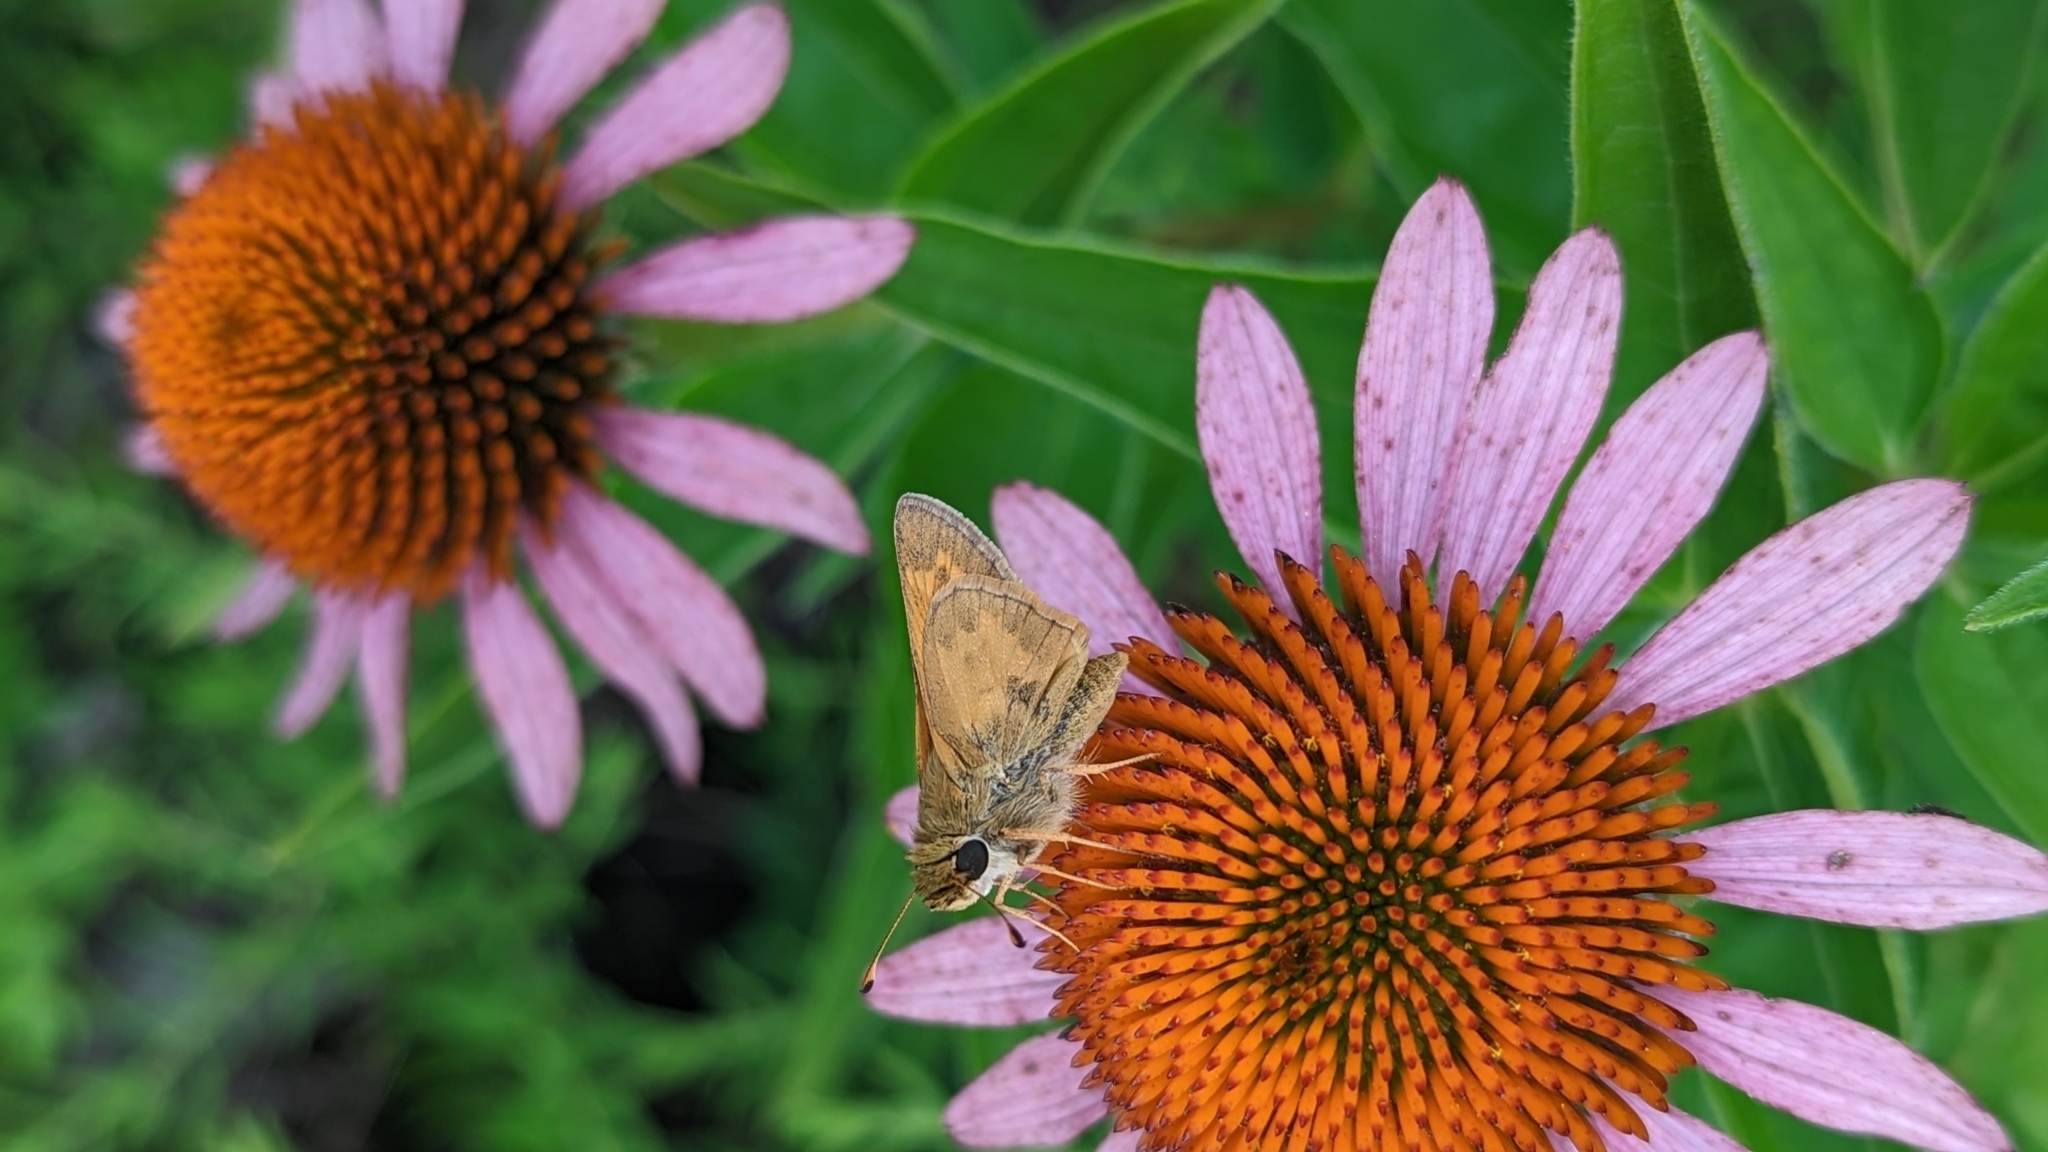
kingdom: Animalia
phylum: Arthropoda
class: Insecta
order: Lepidoptera
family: Hesperiidae
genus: Atalopedes
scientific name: Atalopedes
